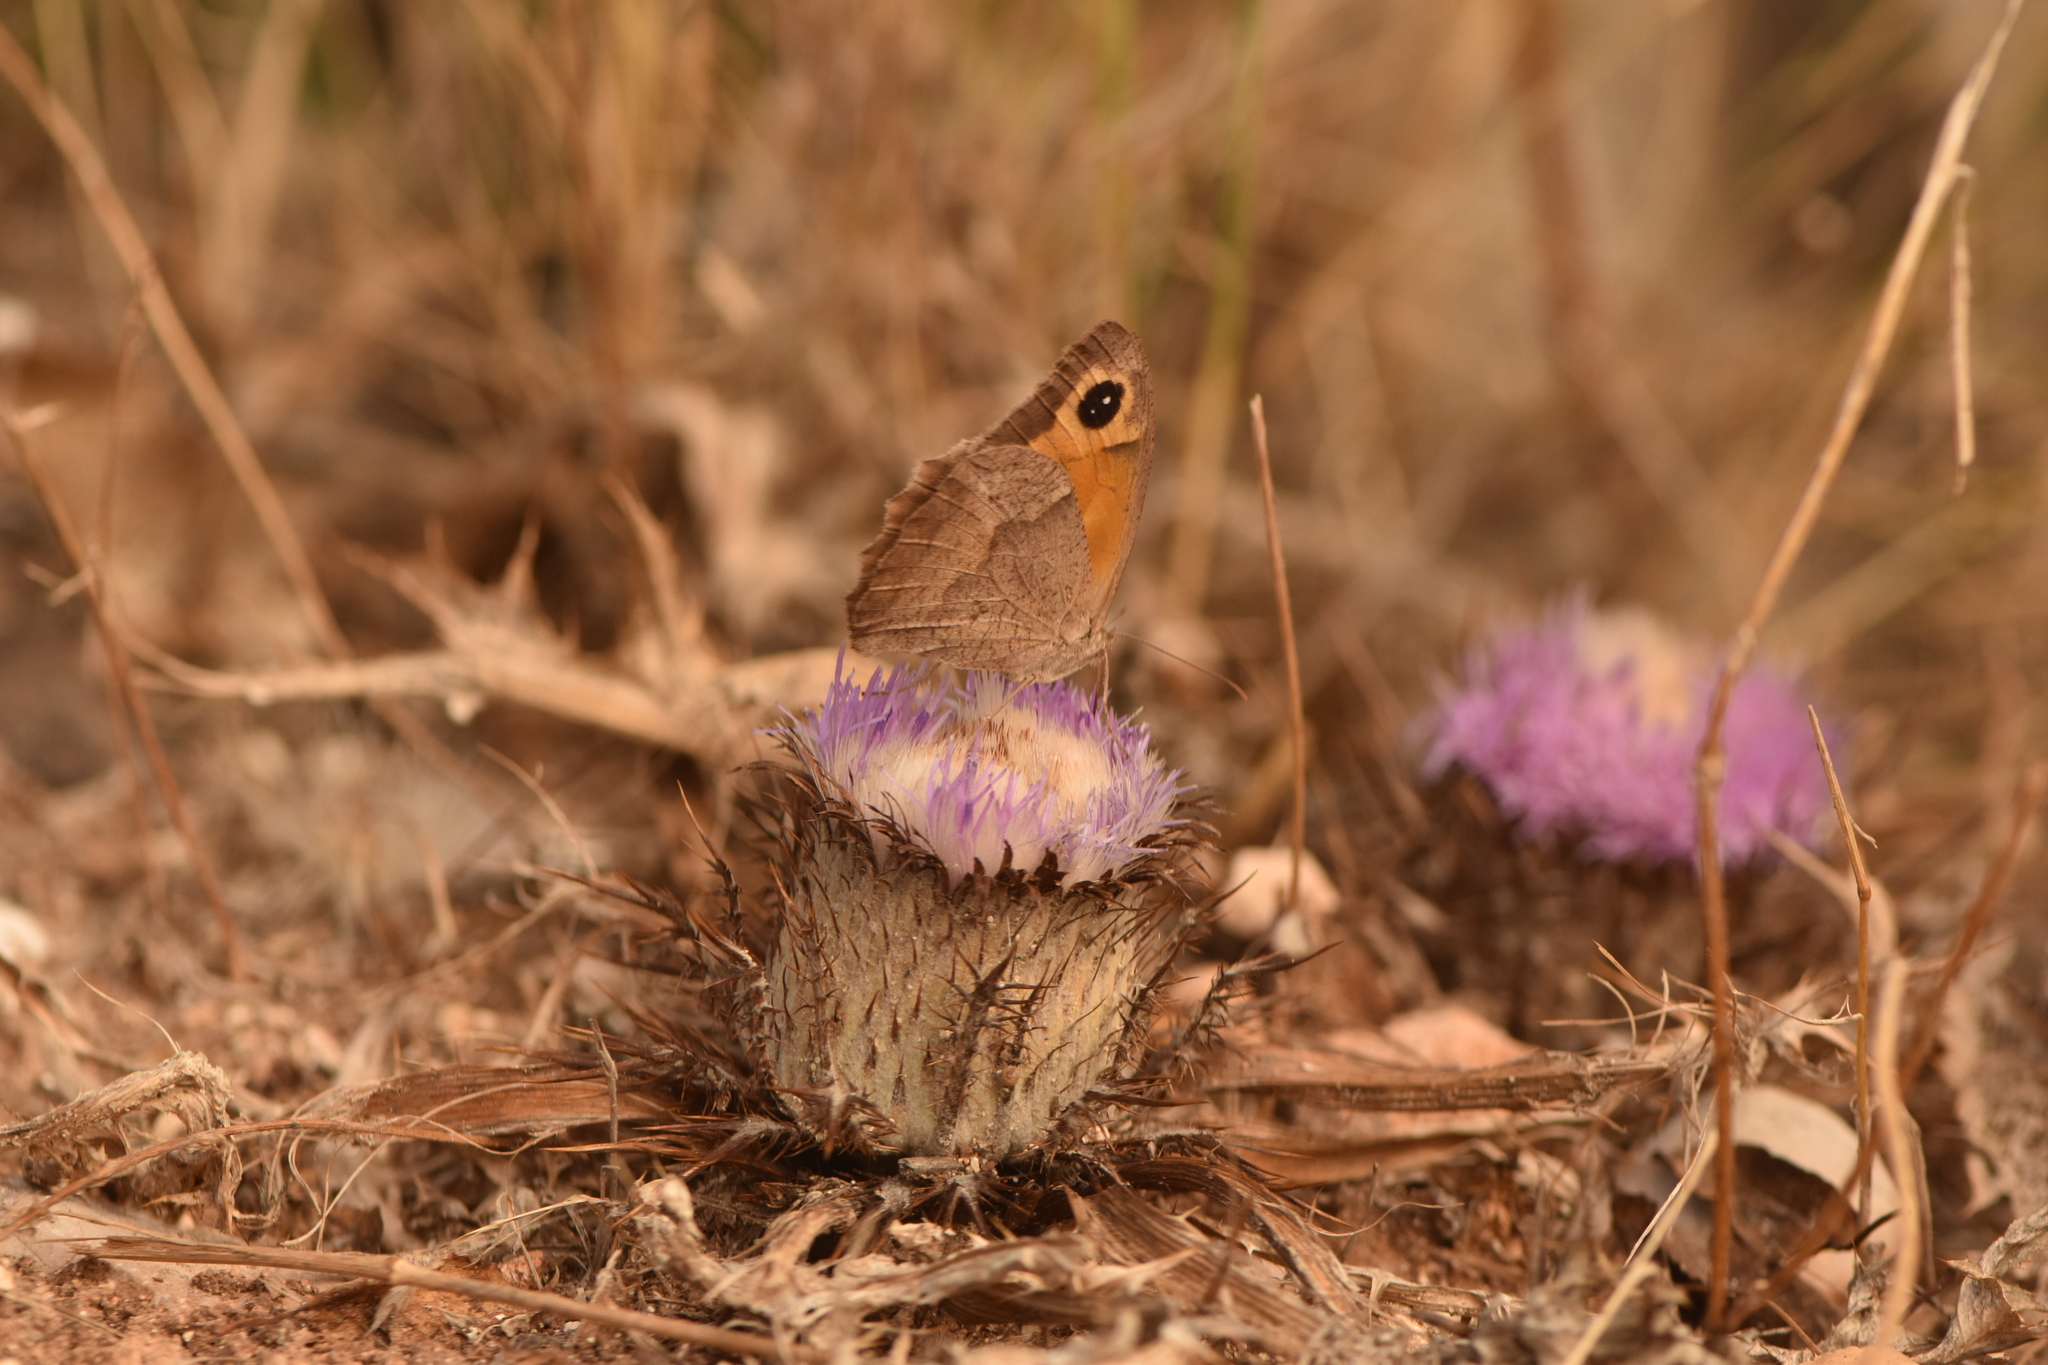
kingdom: Animalia
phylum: Arthropoda
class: Insecta
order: Lepidoptera
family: Nymphalidae
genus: Maniola
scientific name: Maniola jurtina
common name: Meadow brown
